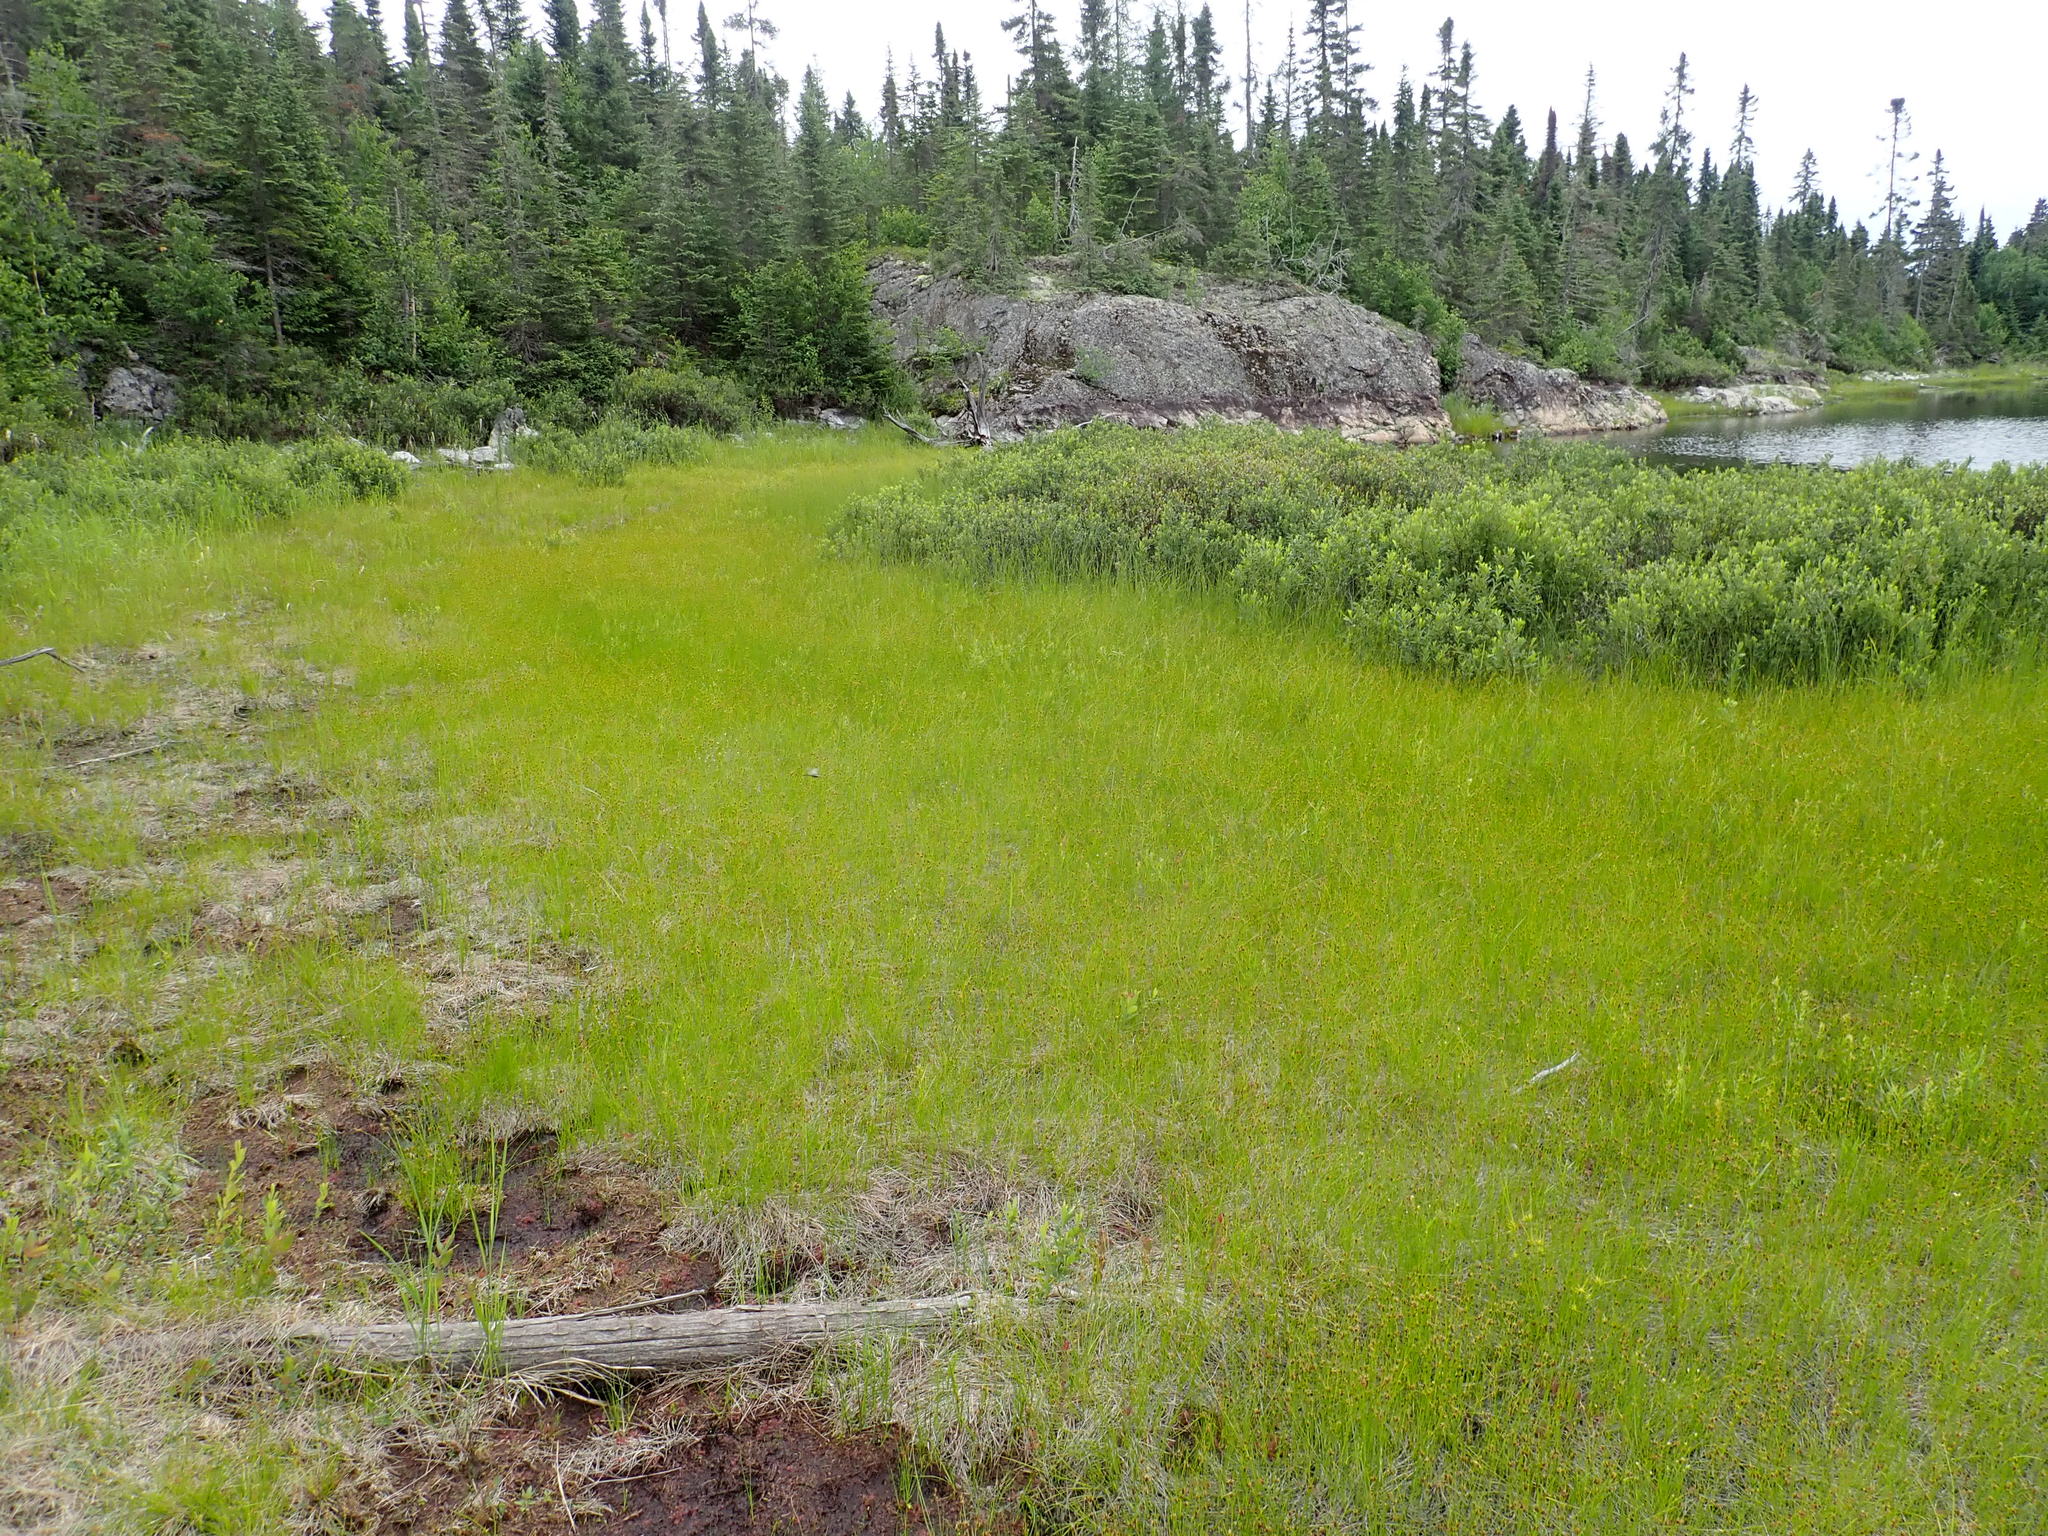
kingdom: Plantae
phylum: Tracheophyta
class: Liliopsida
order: Poales
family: Cyperaceae
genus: Rhynchospora
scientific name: Rhynchospora fusca
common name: Brown beak-sedge
